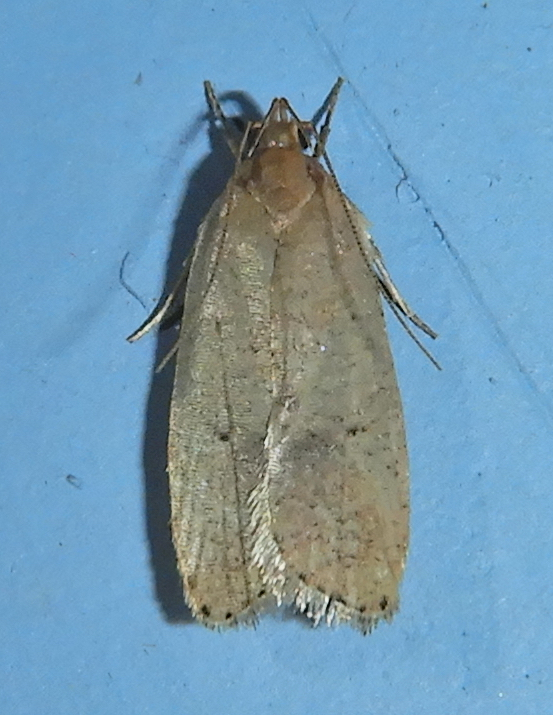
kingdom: Animalia
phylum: Arthropoda
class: Insecta
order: Lepidoptera
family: Depressariidae
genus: Psilocorsis
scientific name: Psilocorsis reflexella
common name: Dotted leaftier moth
